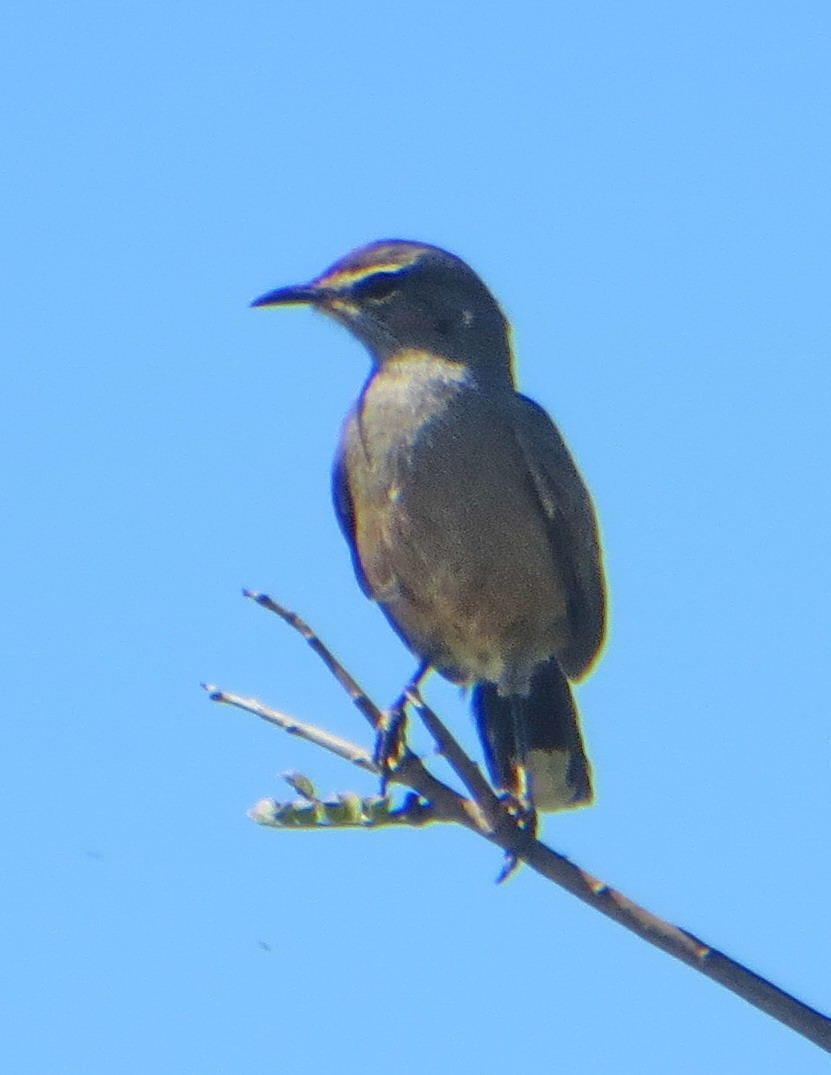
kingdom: Animalia
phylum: Chordata
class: Aves
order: Passeriformes
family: Muscicapidae
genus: Erythropygia
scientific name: Erythropygia coryphoeus
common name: Karoo scrub robin
